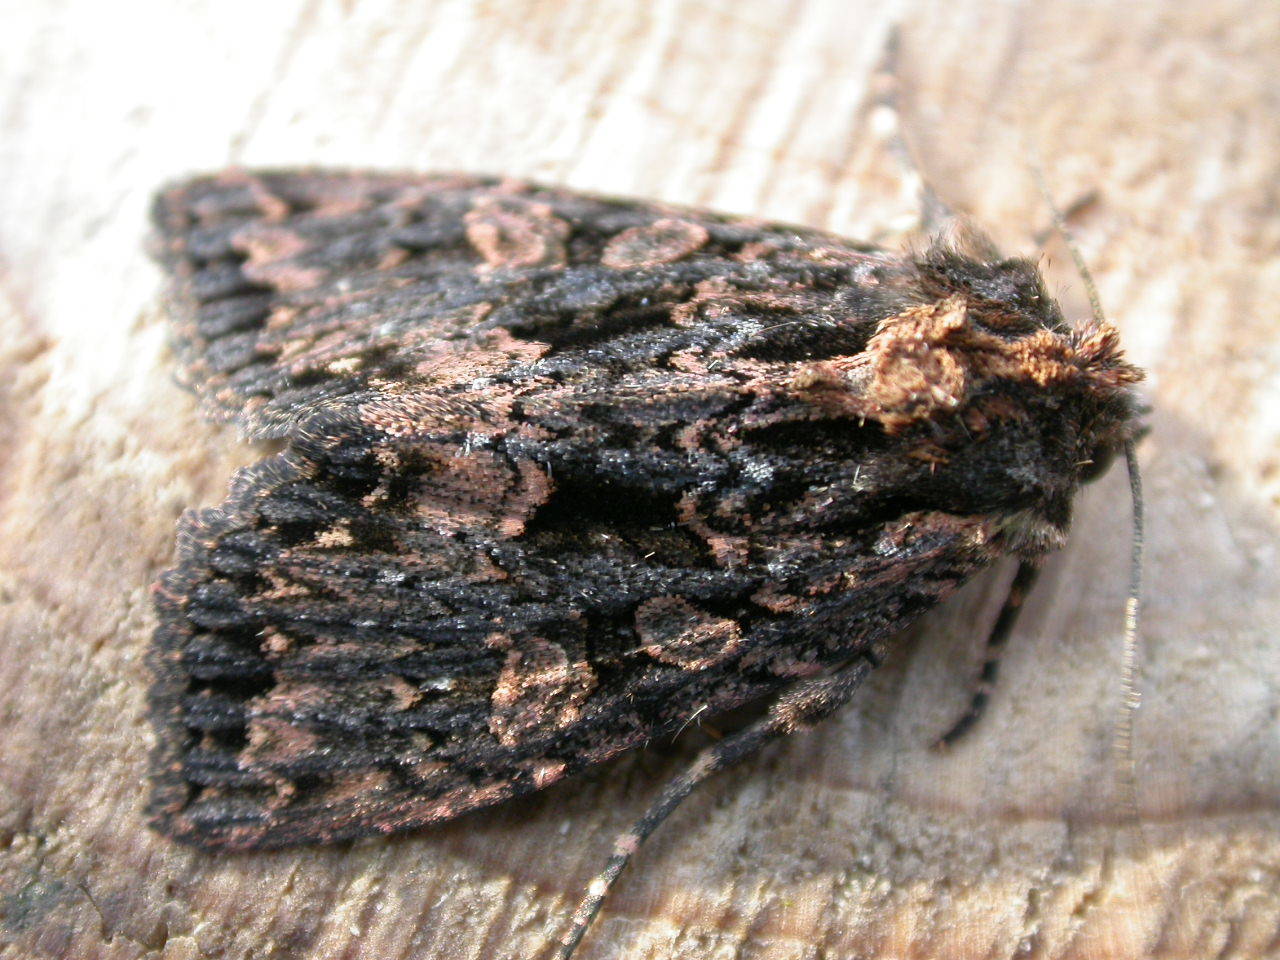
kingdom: Animalia
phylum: Arthropoda
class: Insecta
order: Lepidoptera
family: Noctuidae
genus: Mniotype
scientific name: Mniotype satura
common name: Beautiful arches
